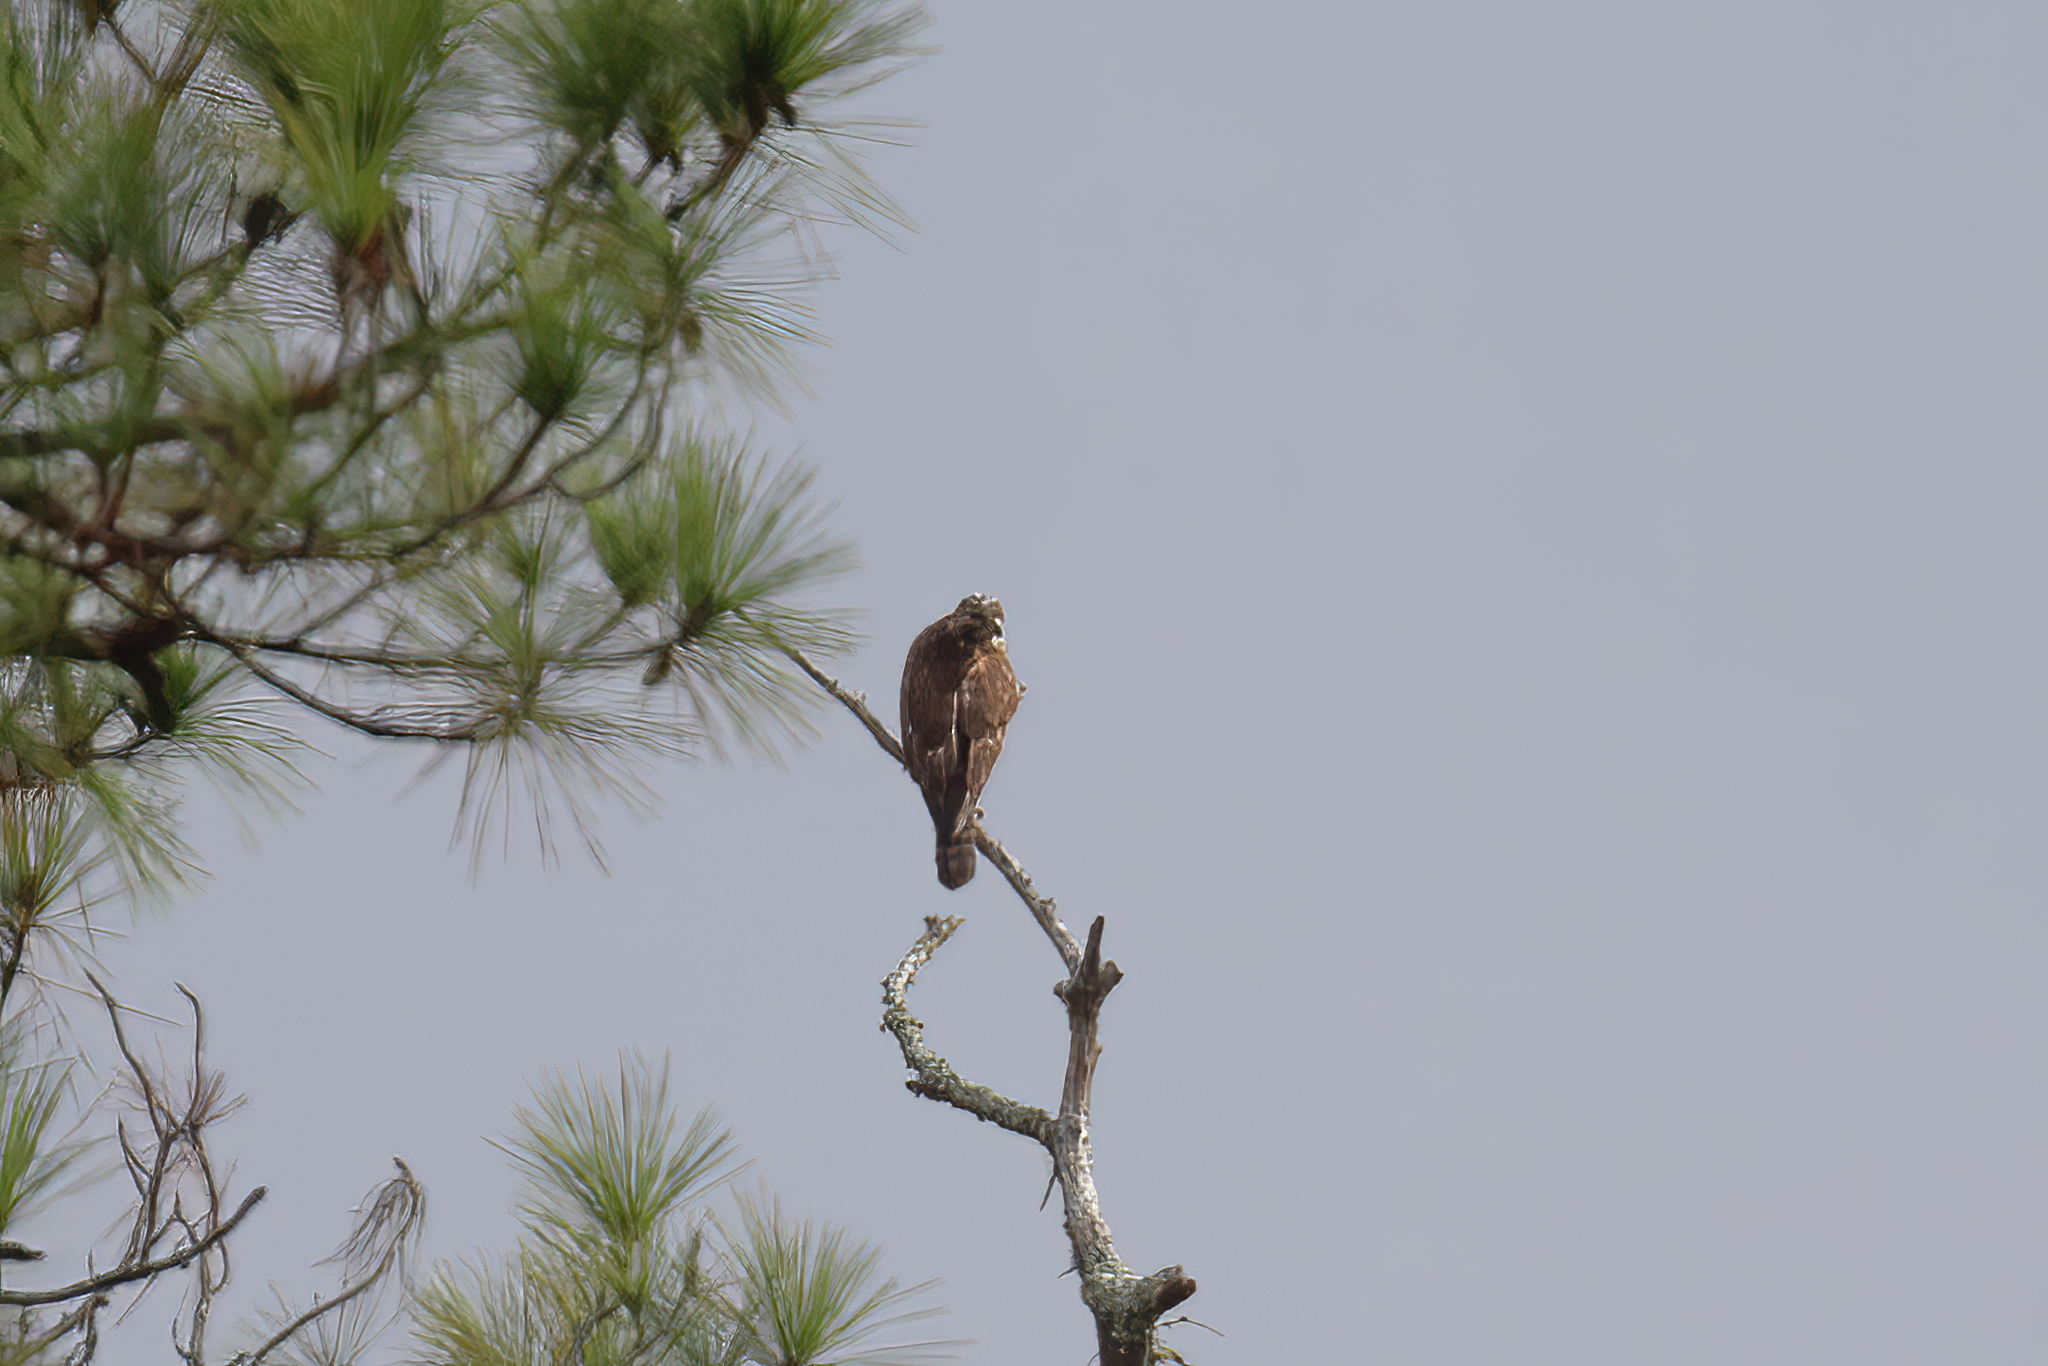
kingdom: Animalia
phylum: Chordata
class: Aves
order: Accipitriformes
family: Accipitridae
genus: Buteo
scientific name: Buteo lineatus
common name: Red-shouldered hawk
